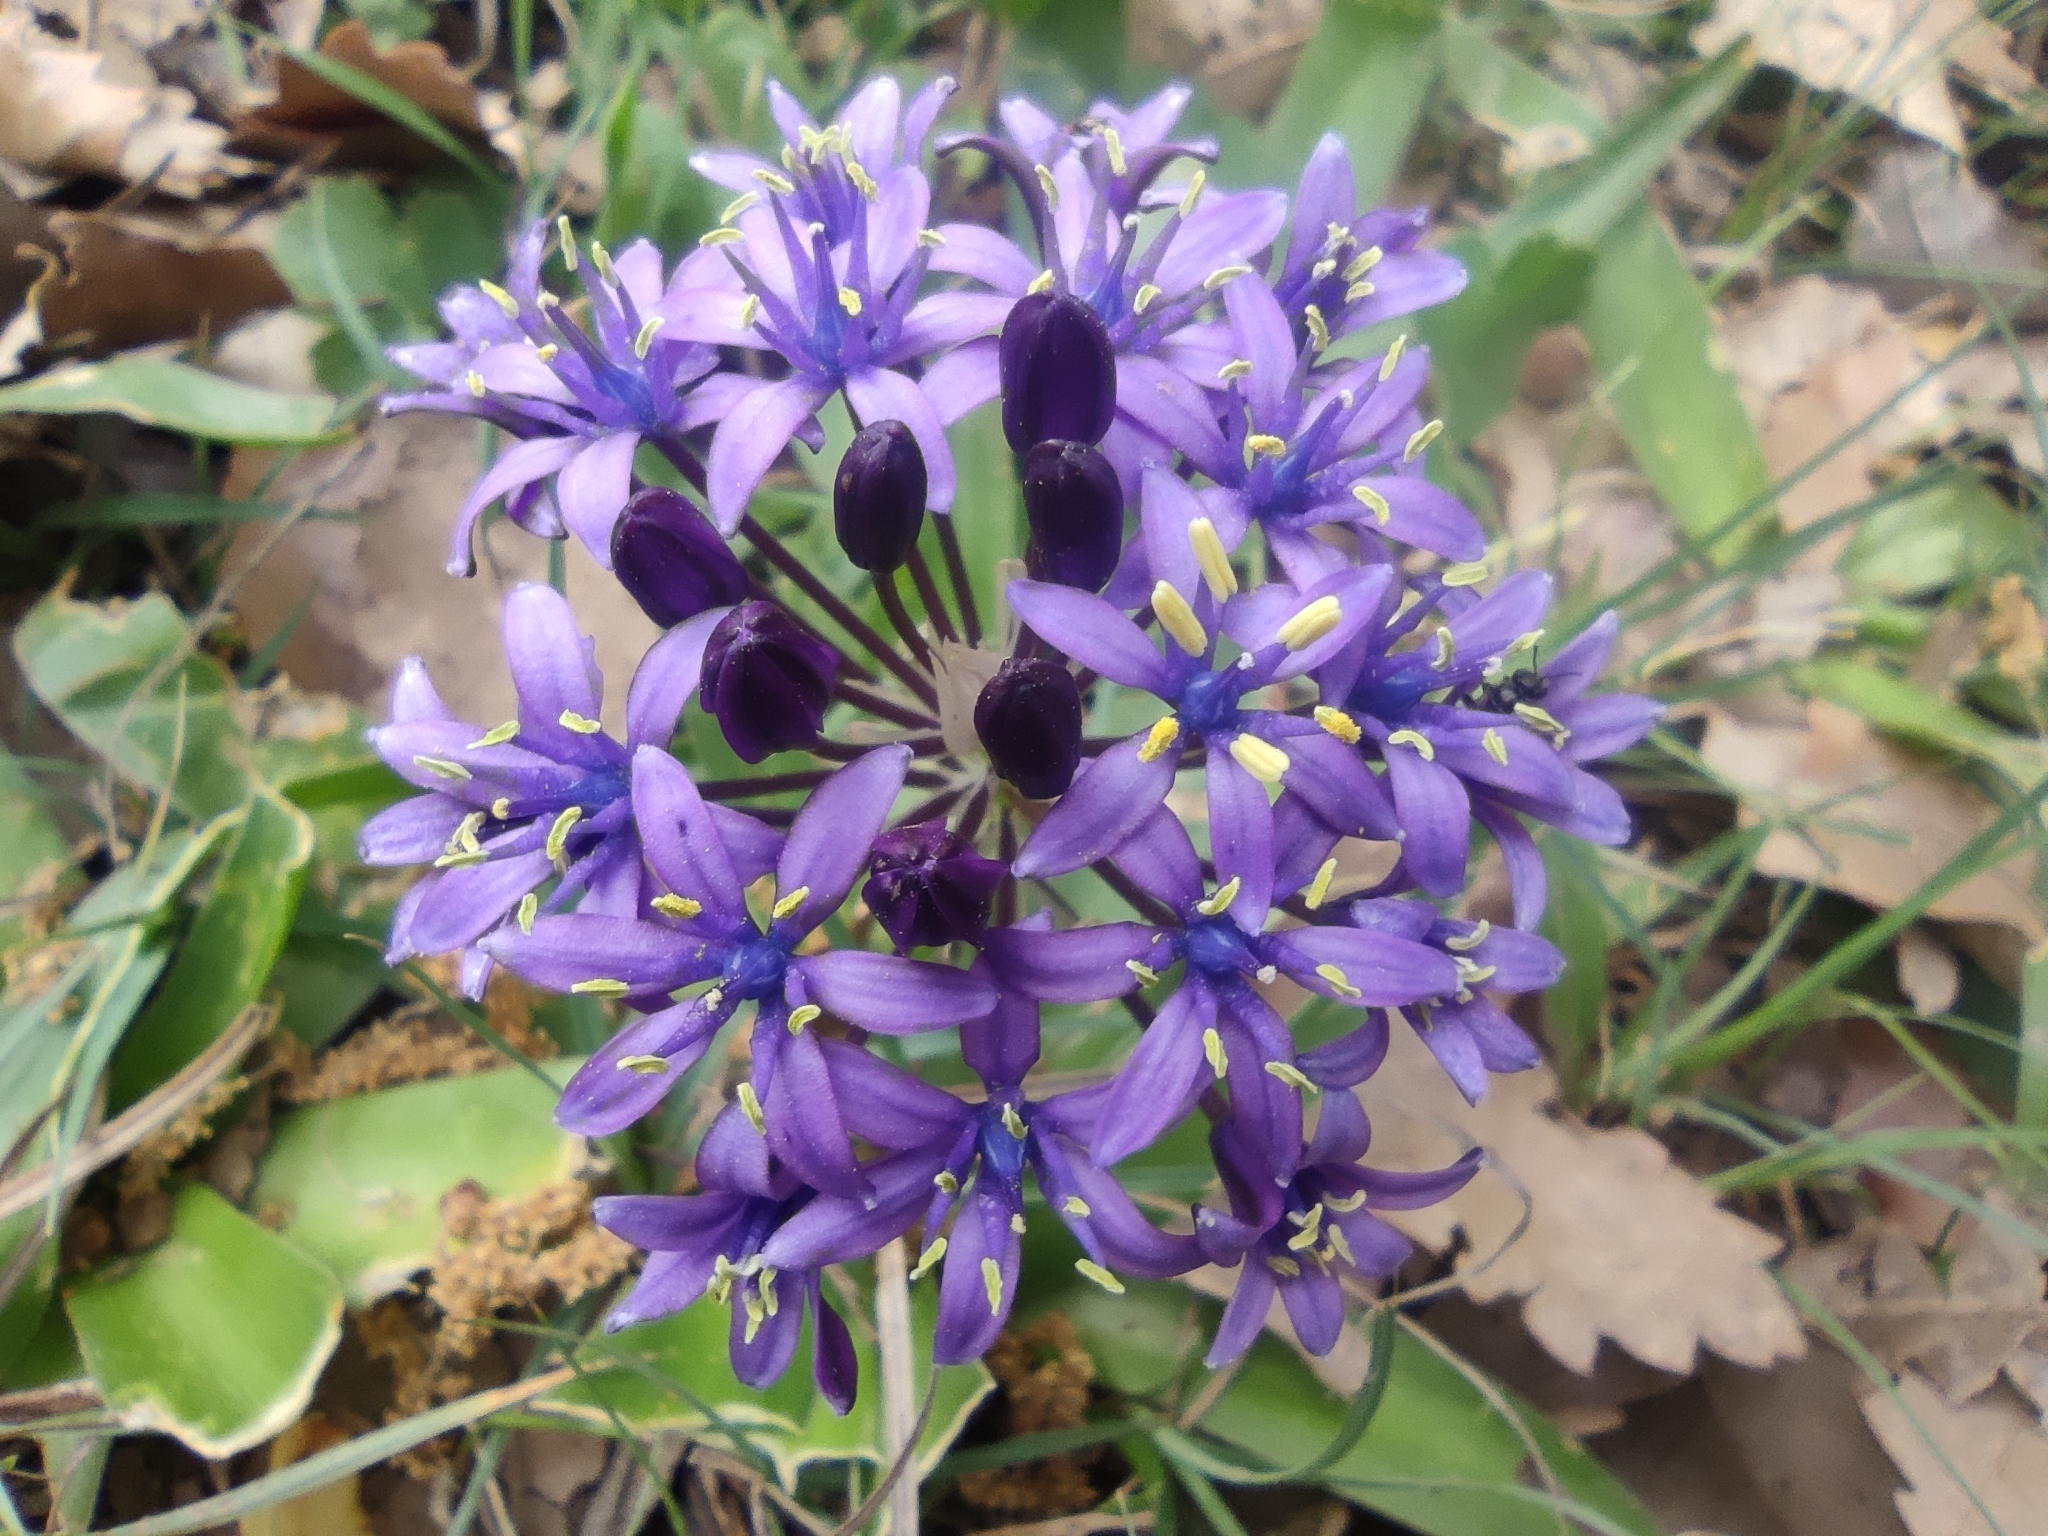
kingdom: Plantae
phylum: Tracheophyta
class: Liliopsida
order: Asparagales
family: Asparagaceae
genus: Scilla
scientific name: Scilla peruviana
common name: Portuguese squill
